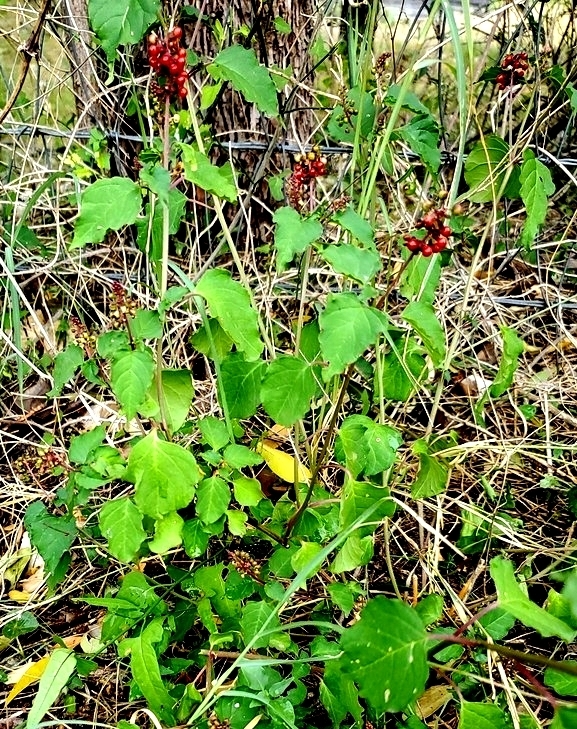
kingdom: Plantae
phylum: Tracheophyta
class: Magnoliopsida
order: Caryophyllales
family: Phytolaccaceae
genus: Rivina
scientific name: Rivina humilis
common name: Rougeplant
